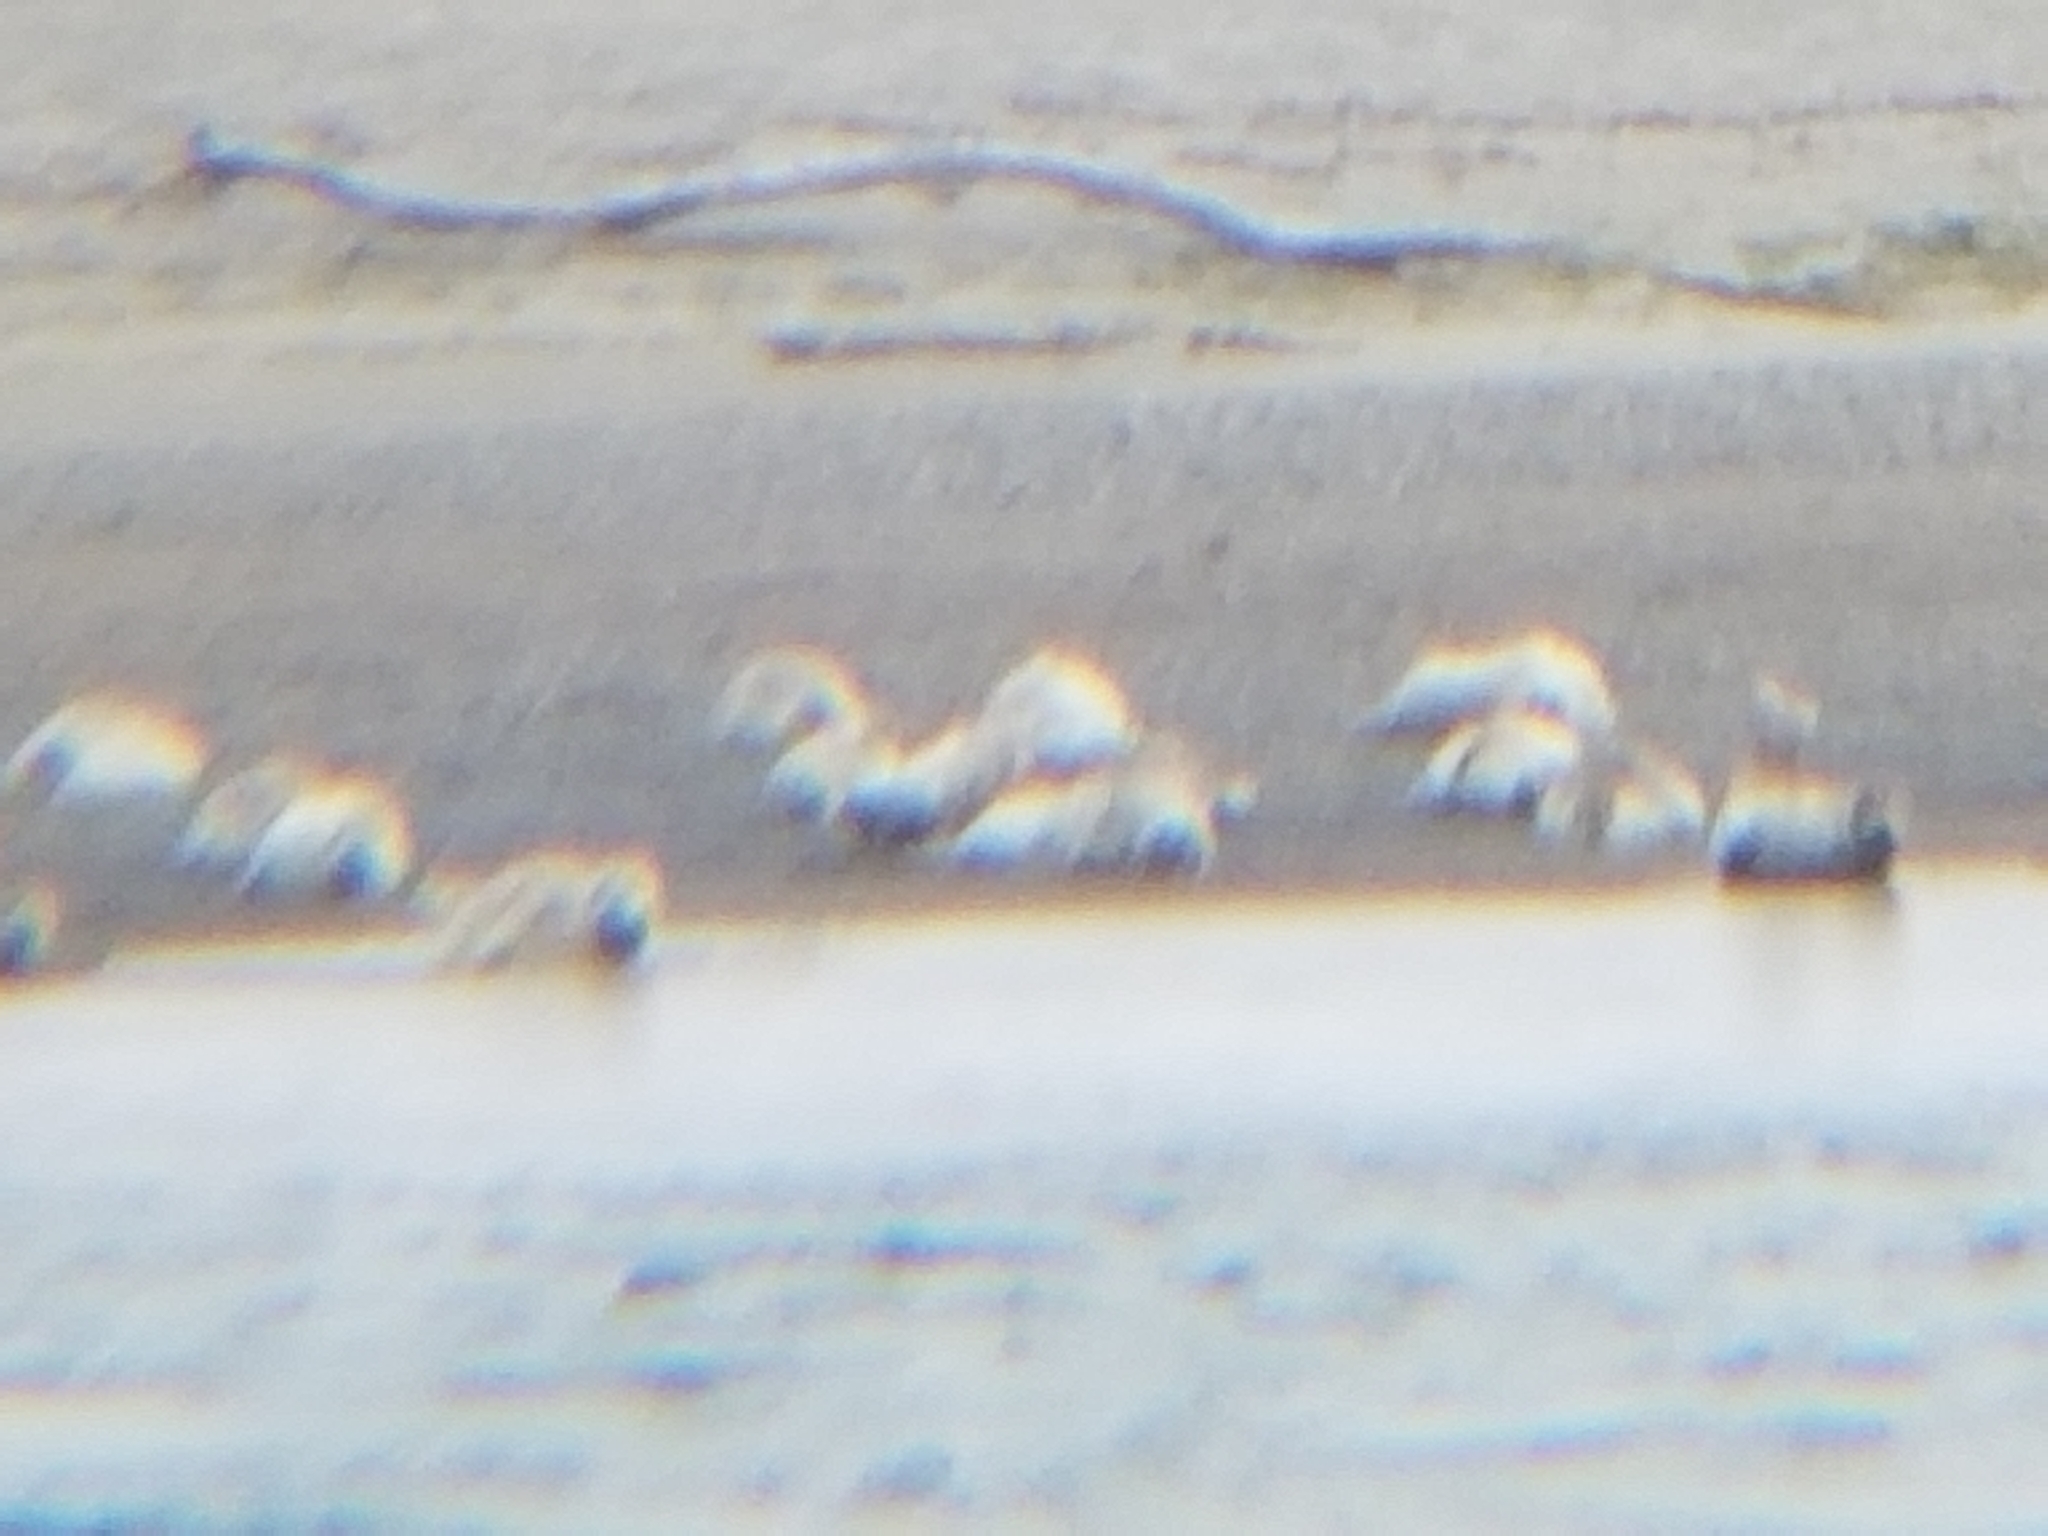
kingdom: Animalia
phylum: Chordata
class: Mammalia
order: Carnivora
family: Phocidae
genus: Phoca
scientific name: Phoca vitulina
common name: Harbor seal
